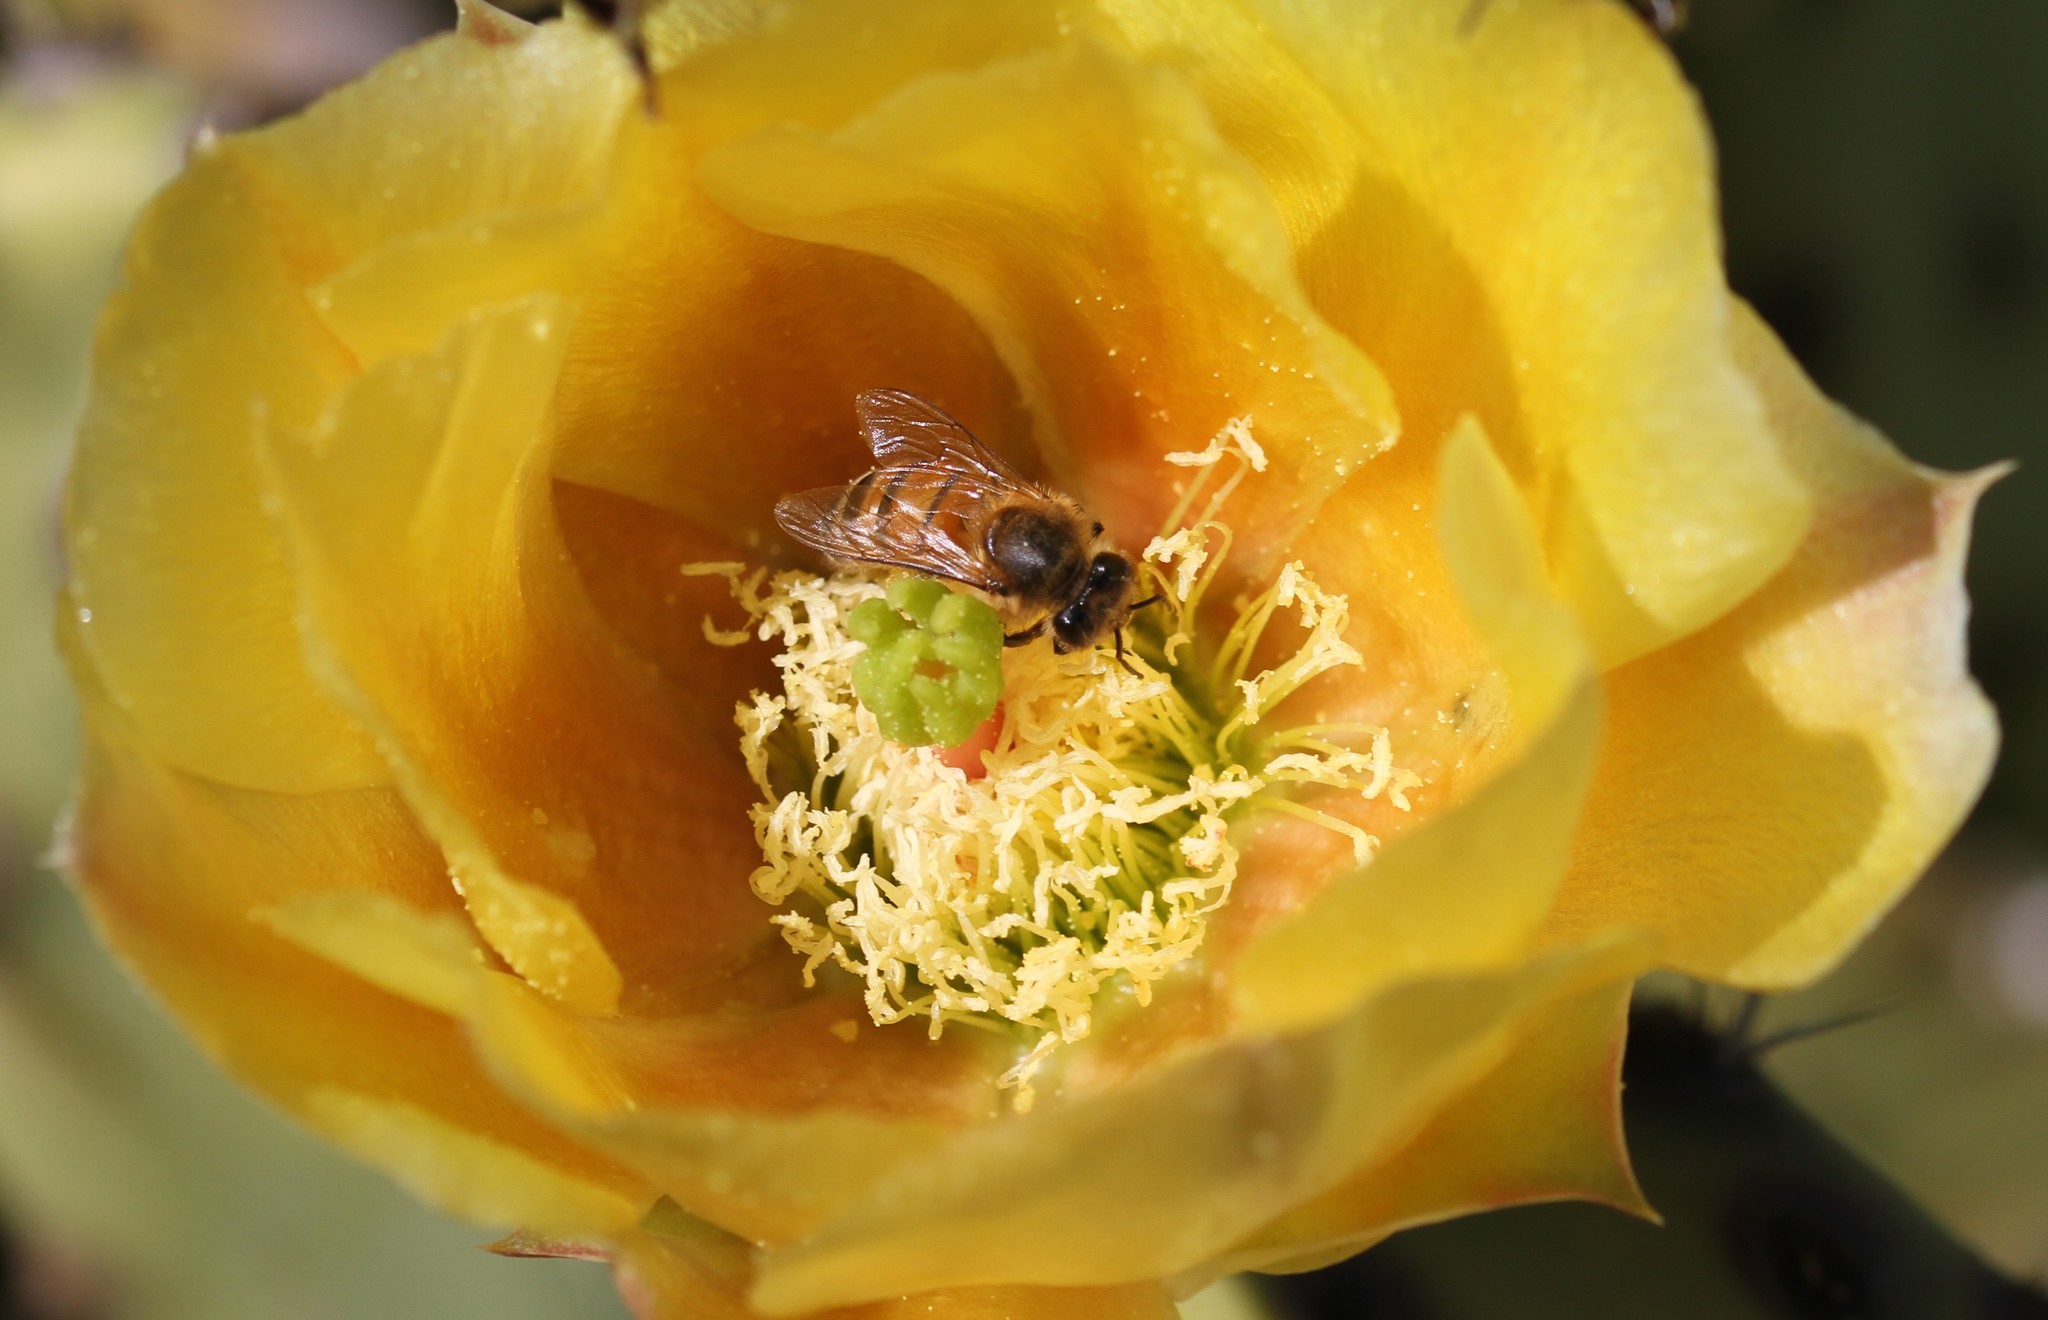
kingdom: Animalia
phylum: Arthropoda
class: Insecta
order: Hymenoptera
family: Apidae
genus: Apis
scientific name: Apis mellifera
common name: Honey bee
